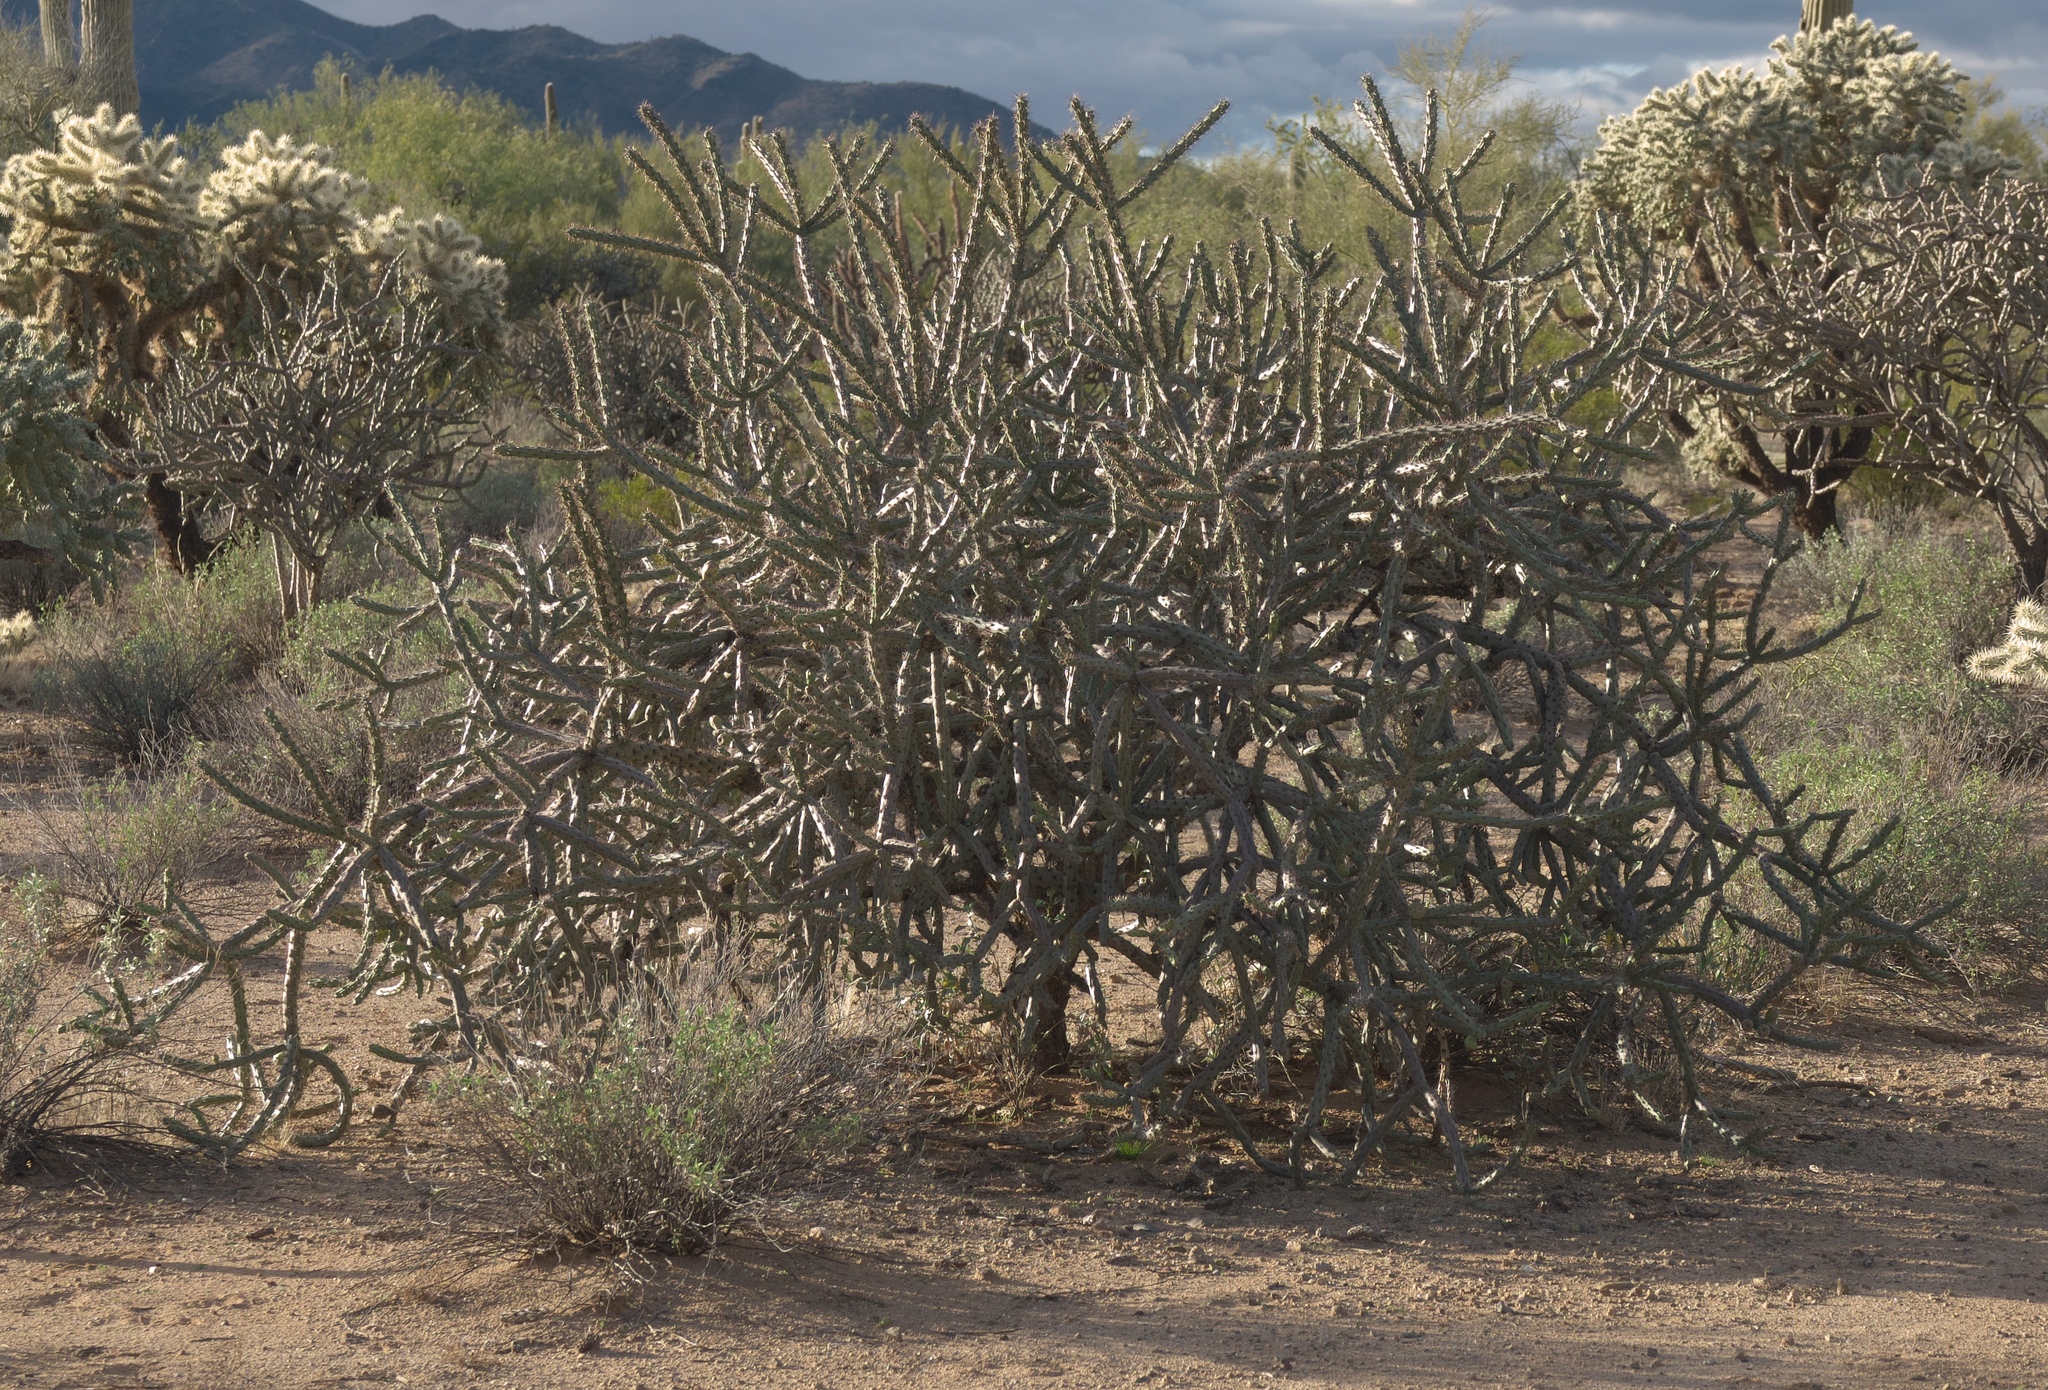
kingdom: Plantae
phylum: Tracheophyta
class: Magnoliopsida
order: Caryophyllales
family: Cactaceae
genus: Cylindropuntia
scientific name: Cylindropuntia thurberi
